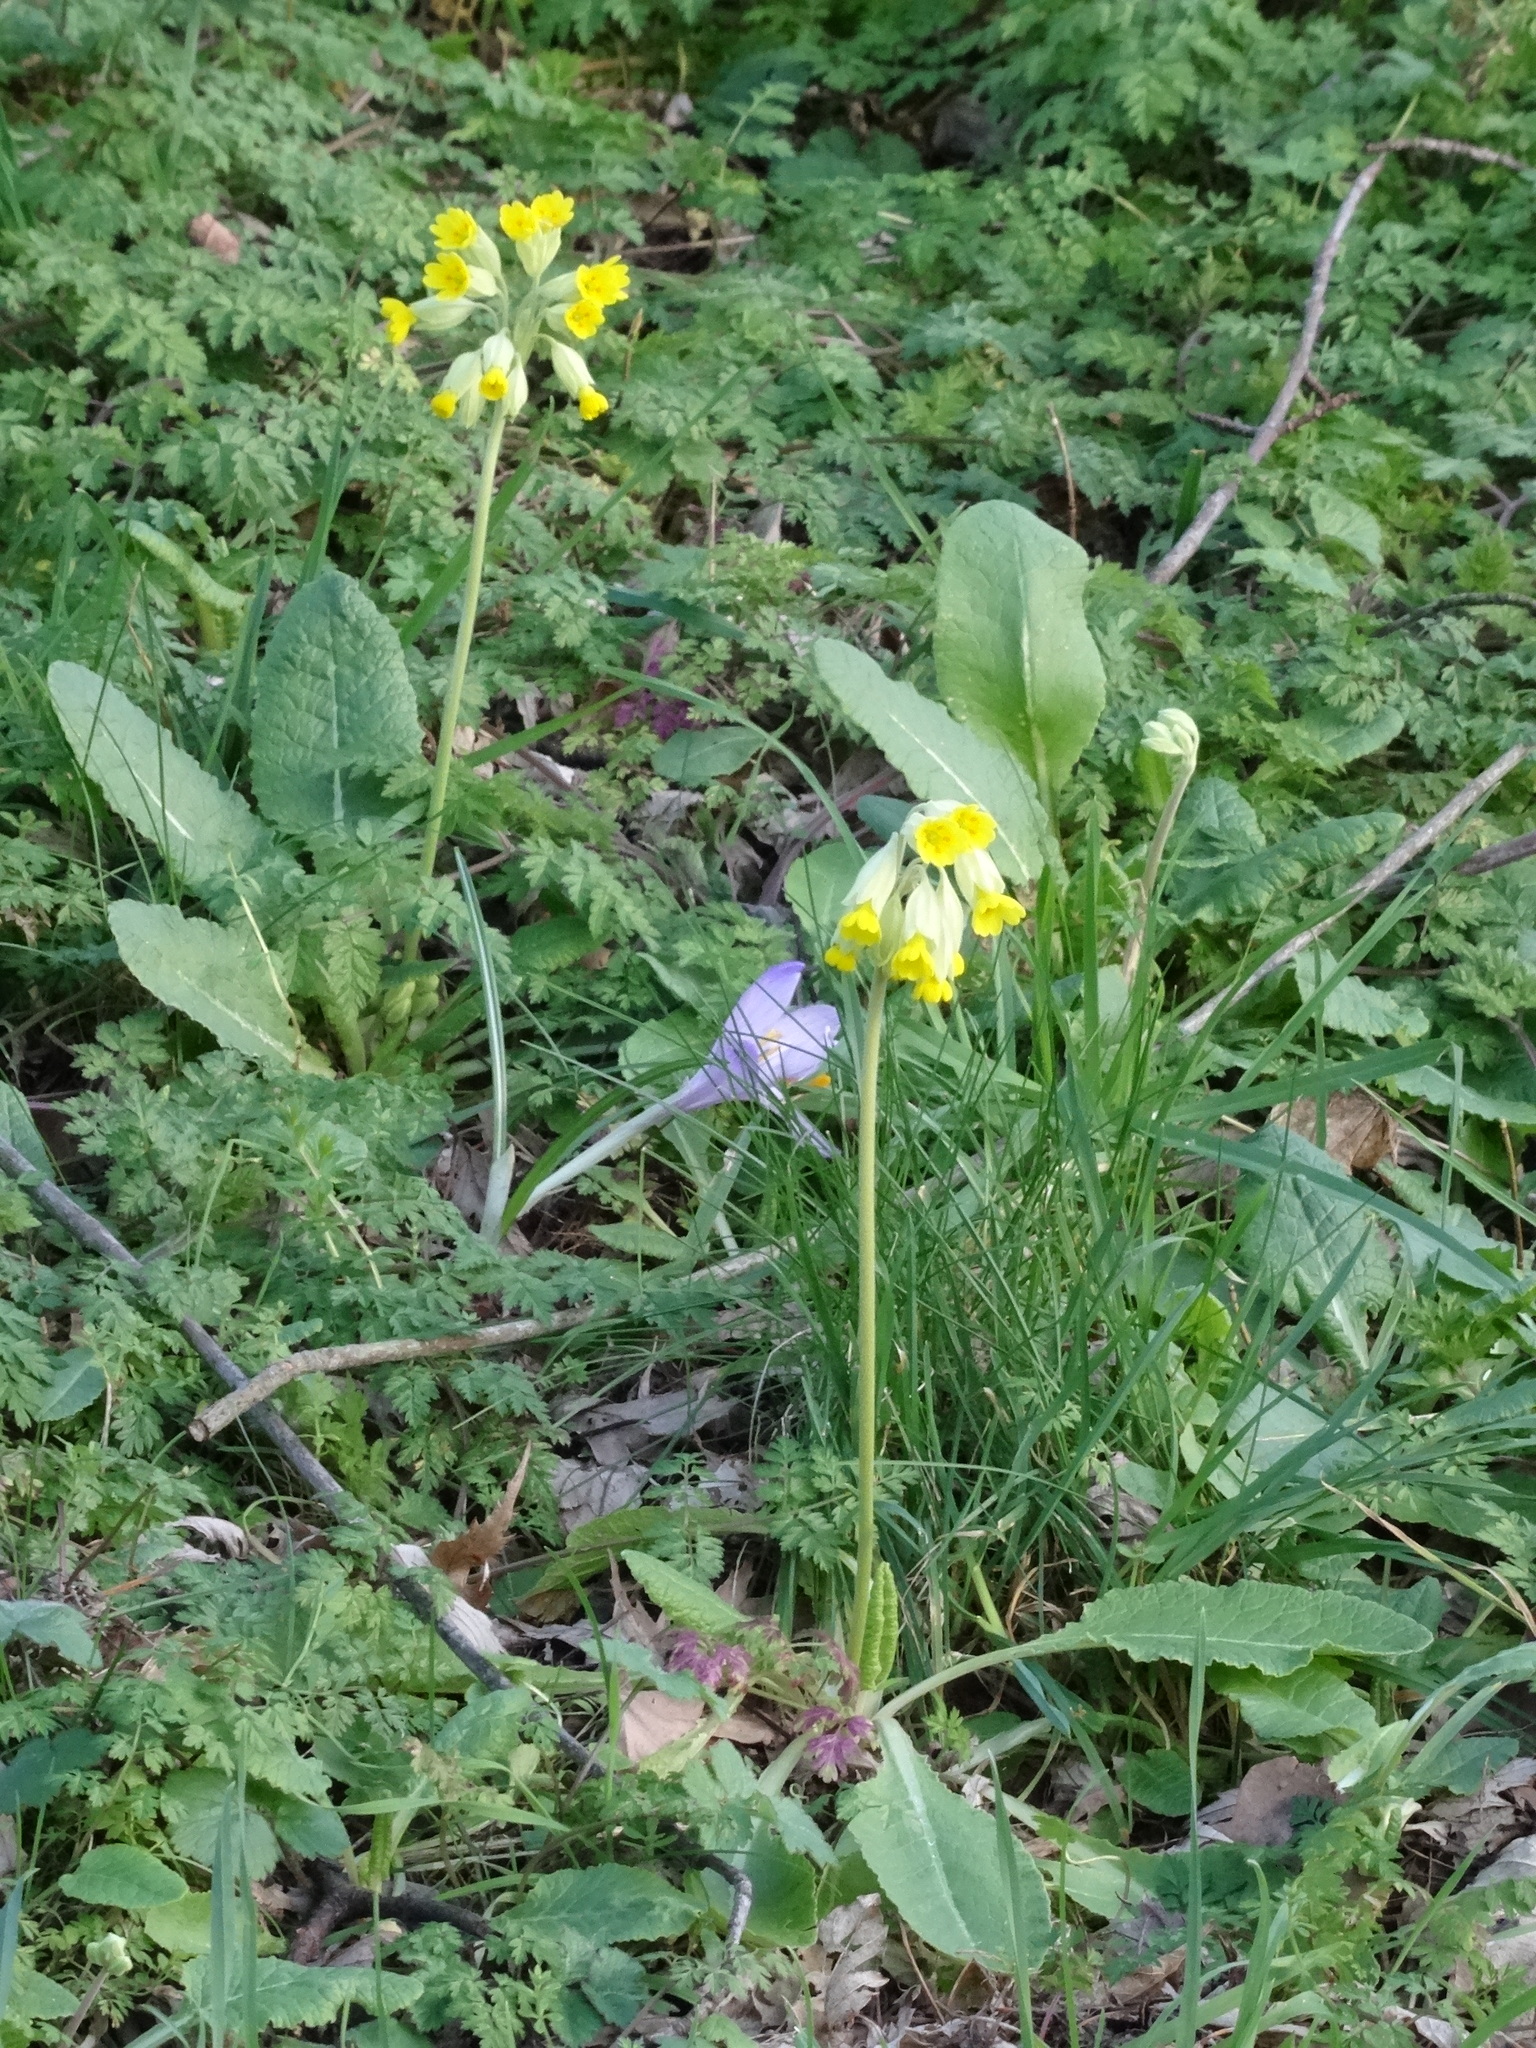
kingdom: Plantae
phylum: Tracheophyta
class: Magnoliopsida
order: Ericales
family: Primulaceae
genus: Primula
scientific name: Primula veris
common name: Cowslip
